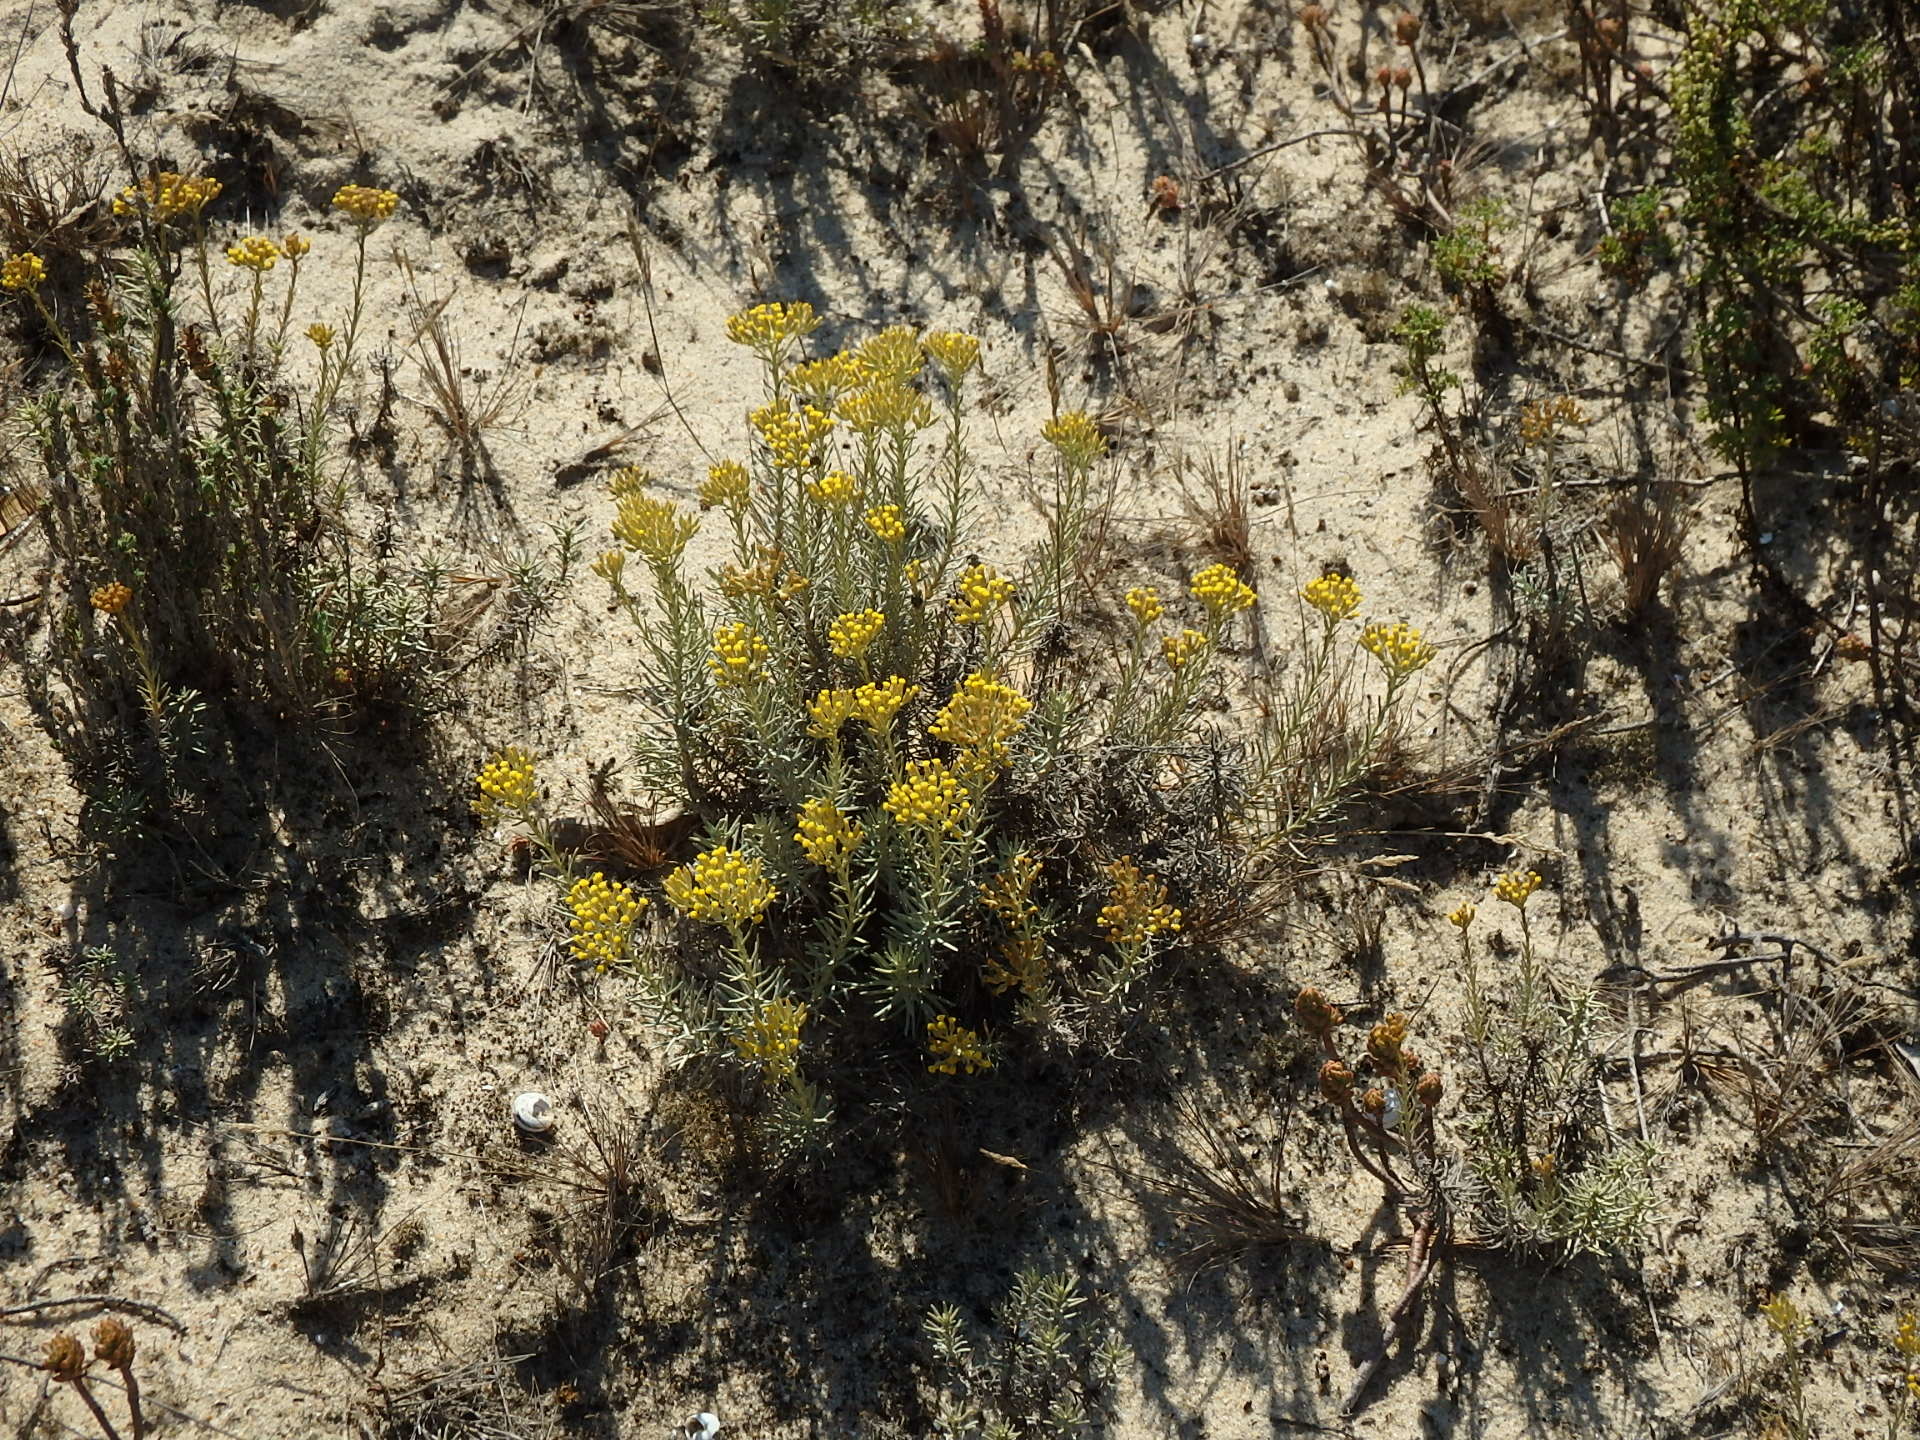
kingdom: Plantae
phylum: Tracheophyta
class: Magnoliopsida
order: Asterales
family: Asteraceae
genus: Helichrysum
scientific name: Helichrysum serotinum
